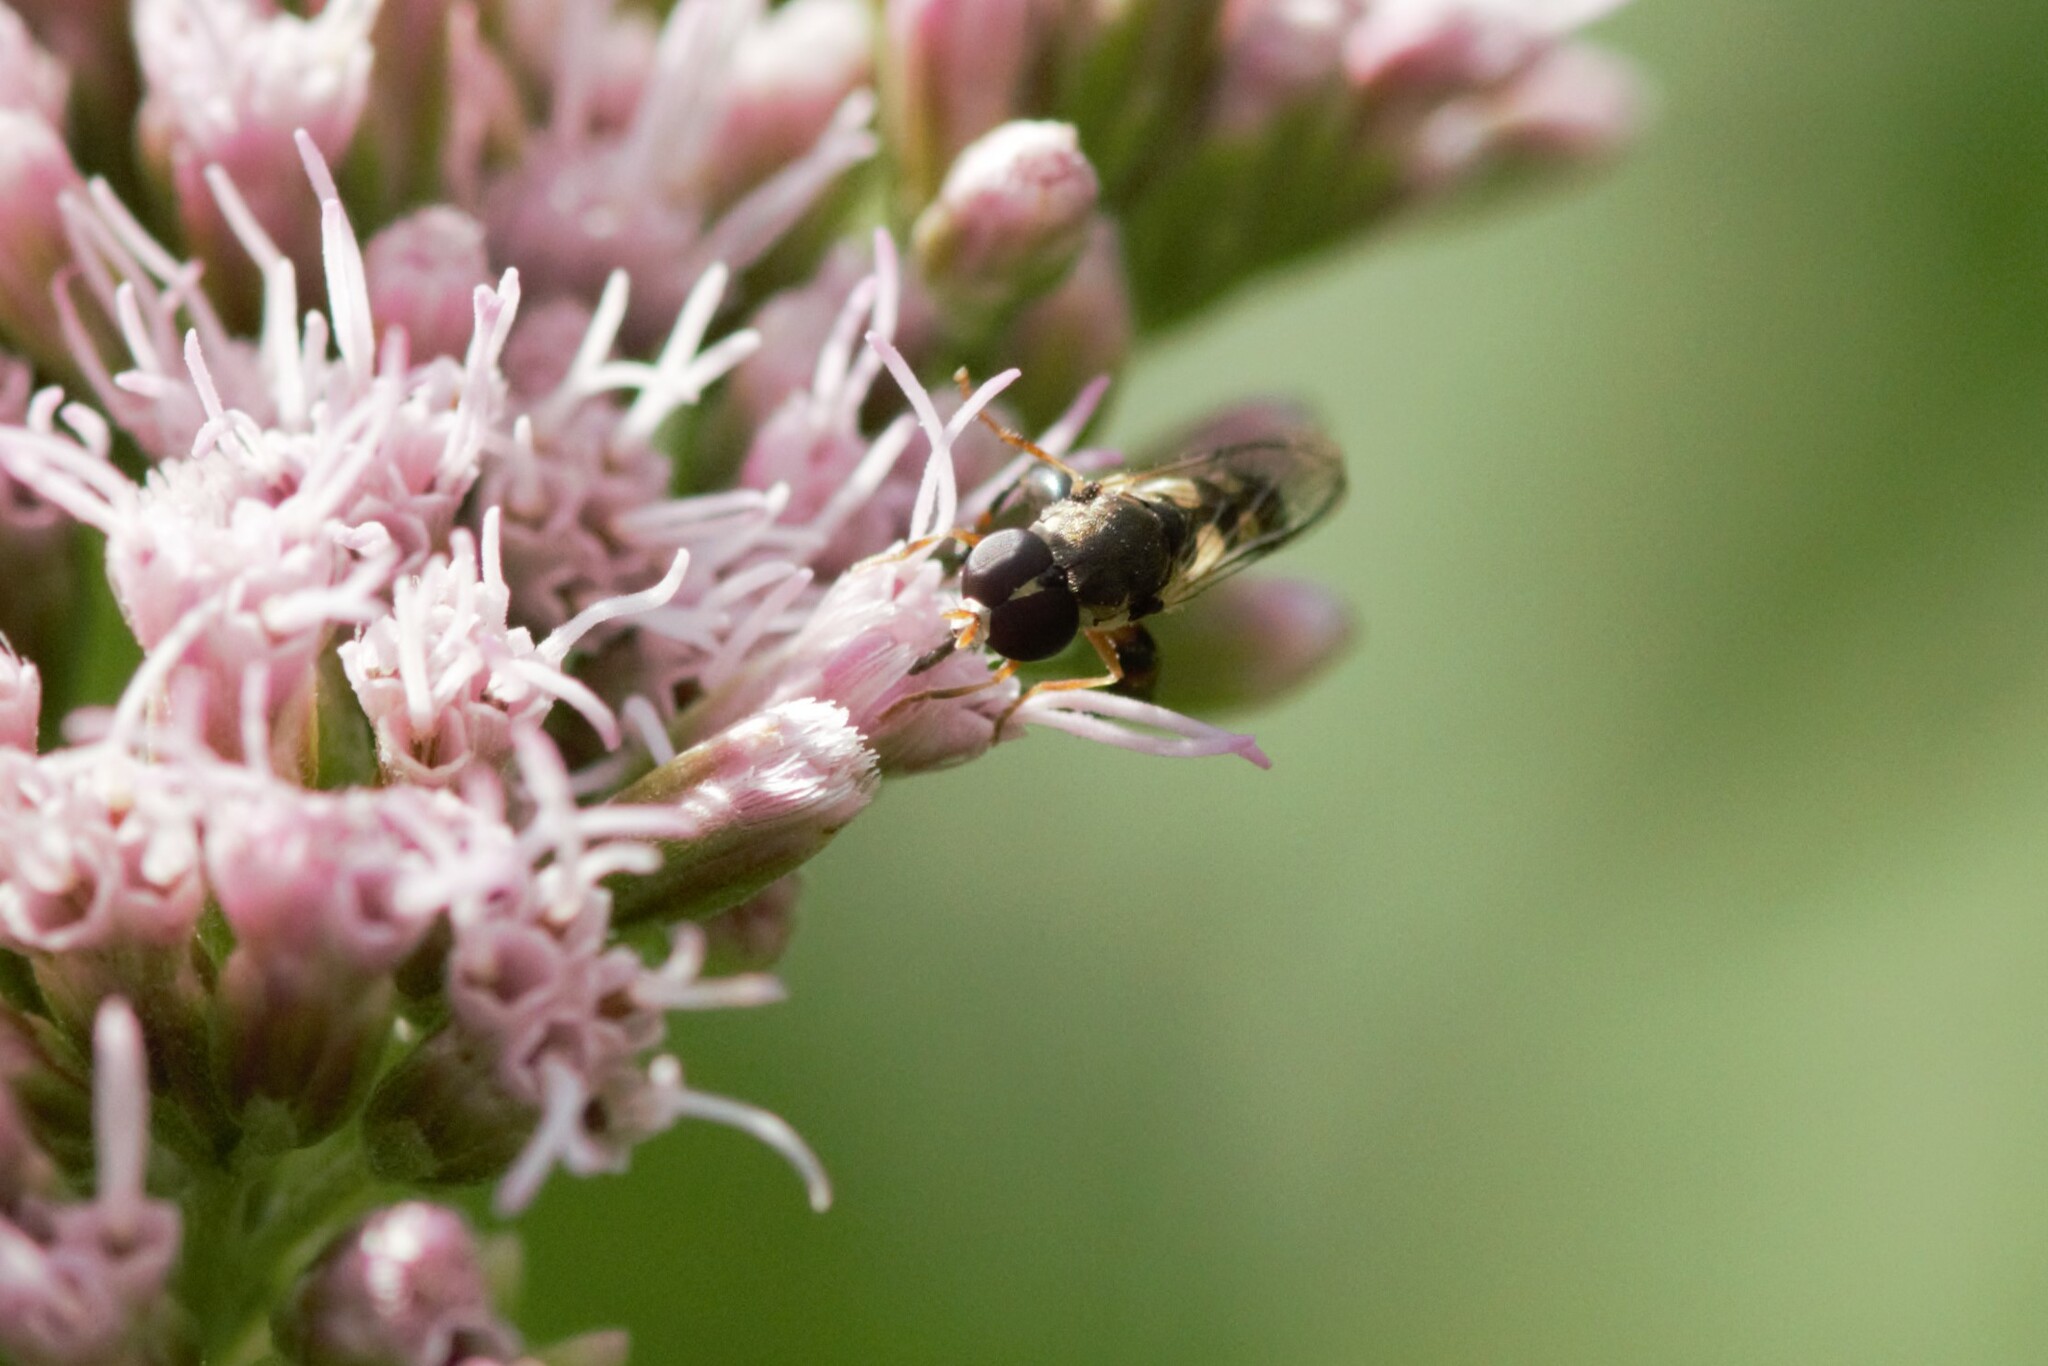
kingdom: Animalia
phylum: Arthropoda
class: Insecta
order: Diptera
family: Syrphidae
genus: Syritta
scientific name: Syritta pipiens
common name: Hover fly
